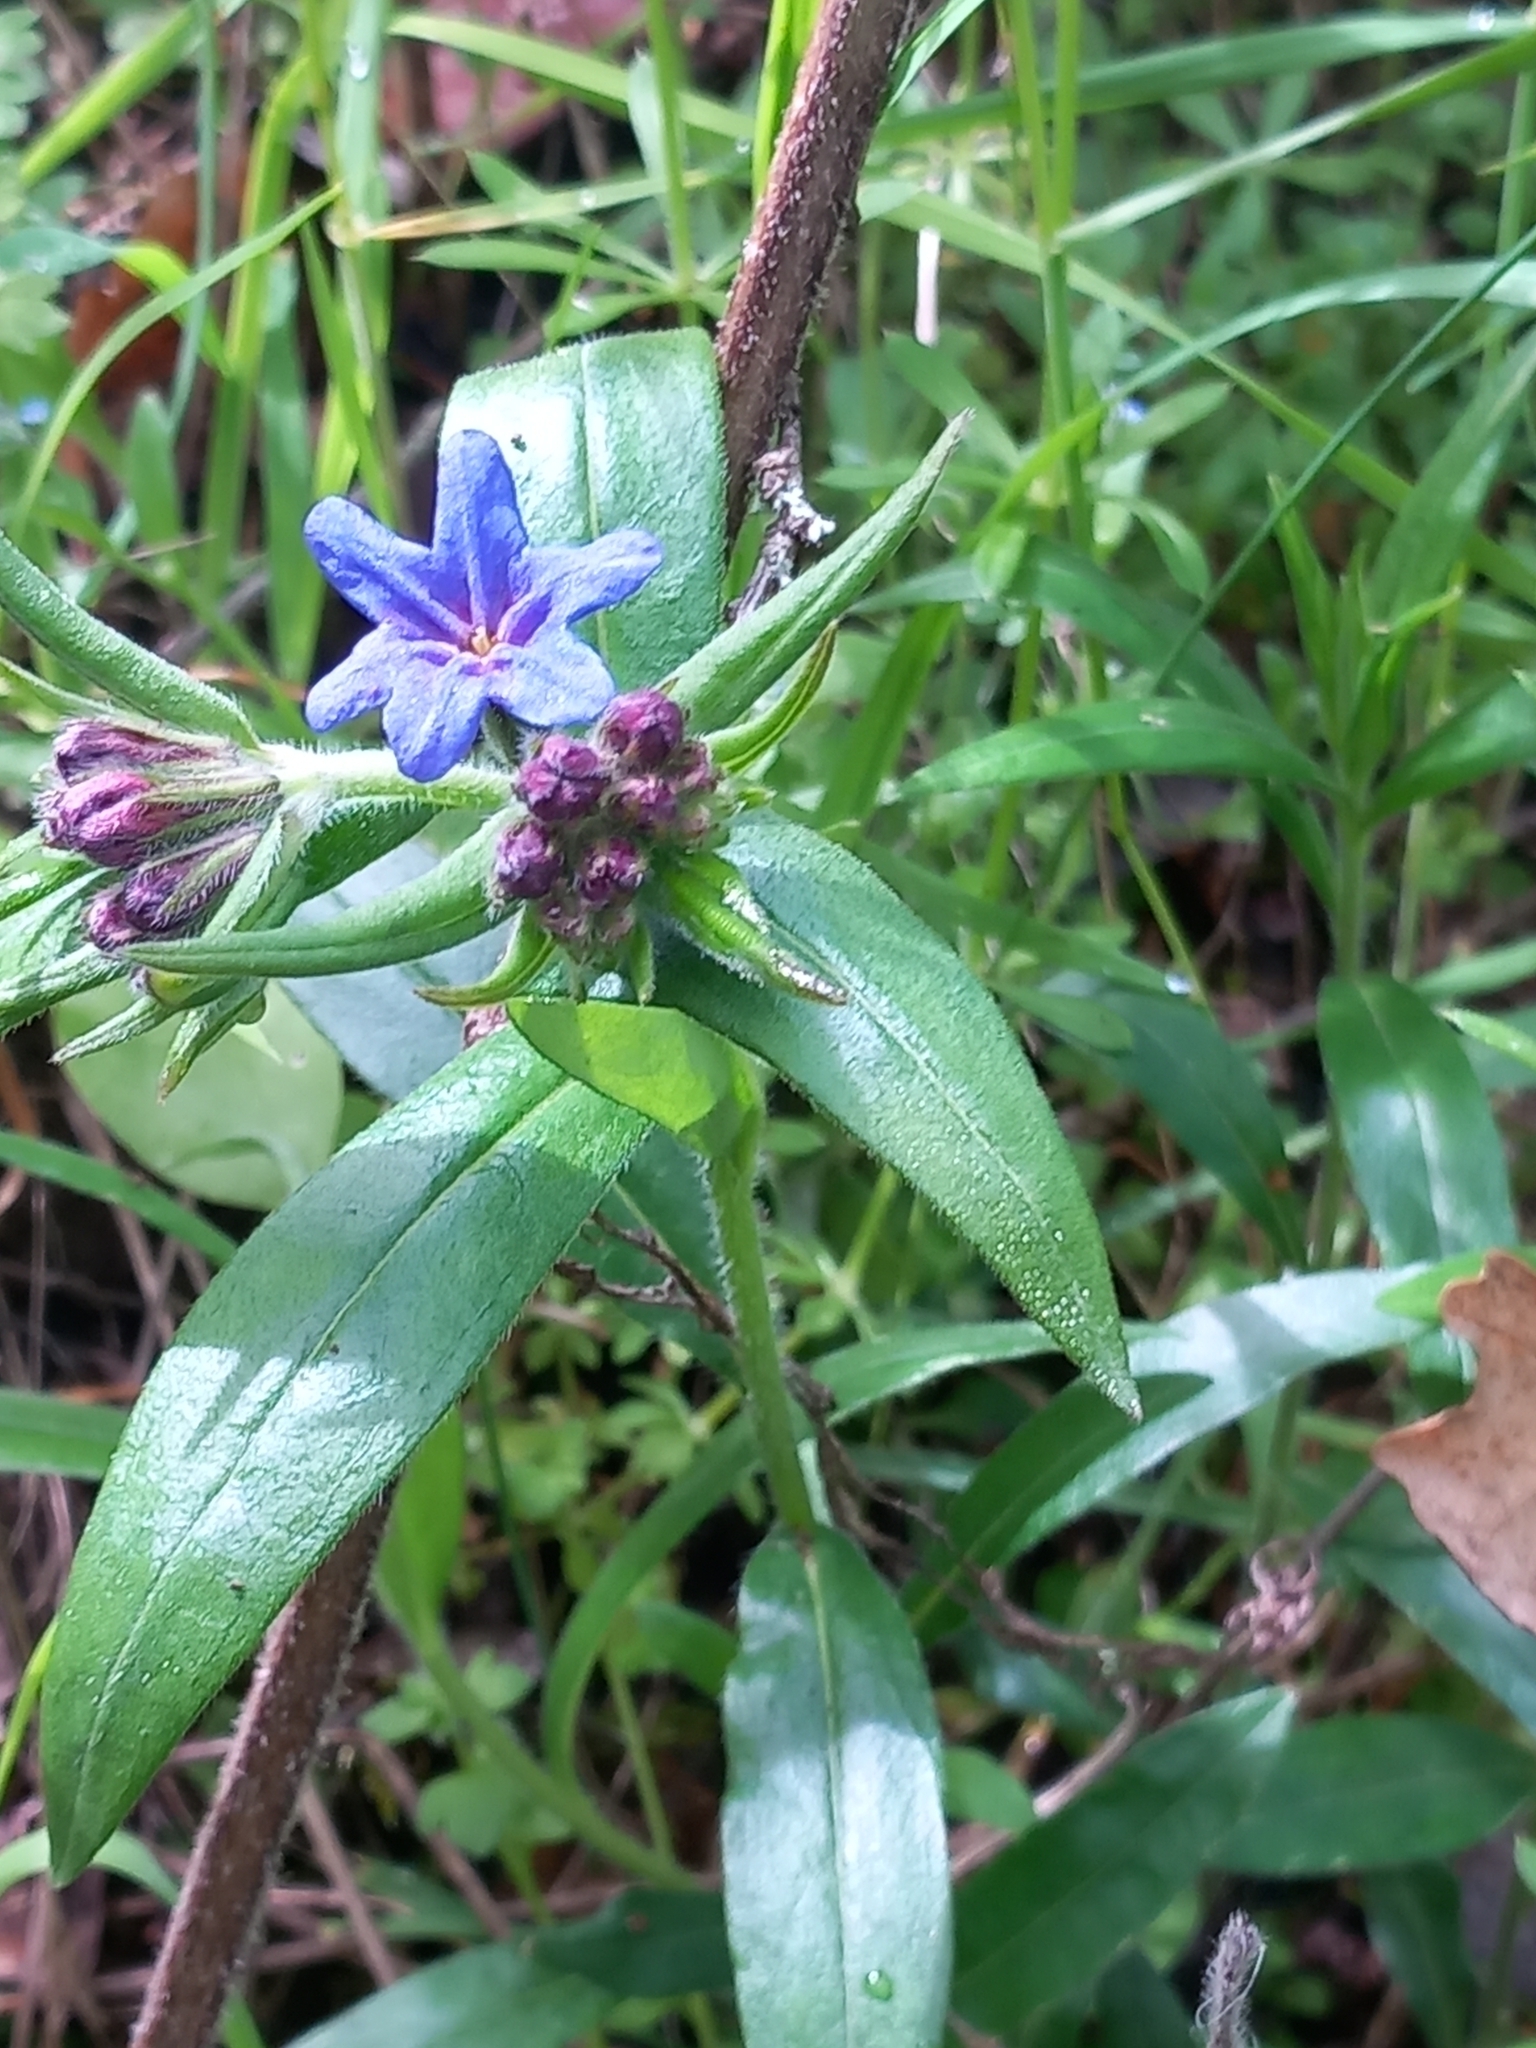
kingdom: Plantae
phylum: Tracheophyta
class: Magnoliopsida
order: Boraginales
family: Boraginaceae
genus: Aegonychon
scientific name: Aegonychon purpurocaeruleum
